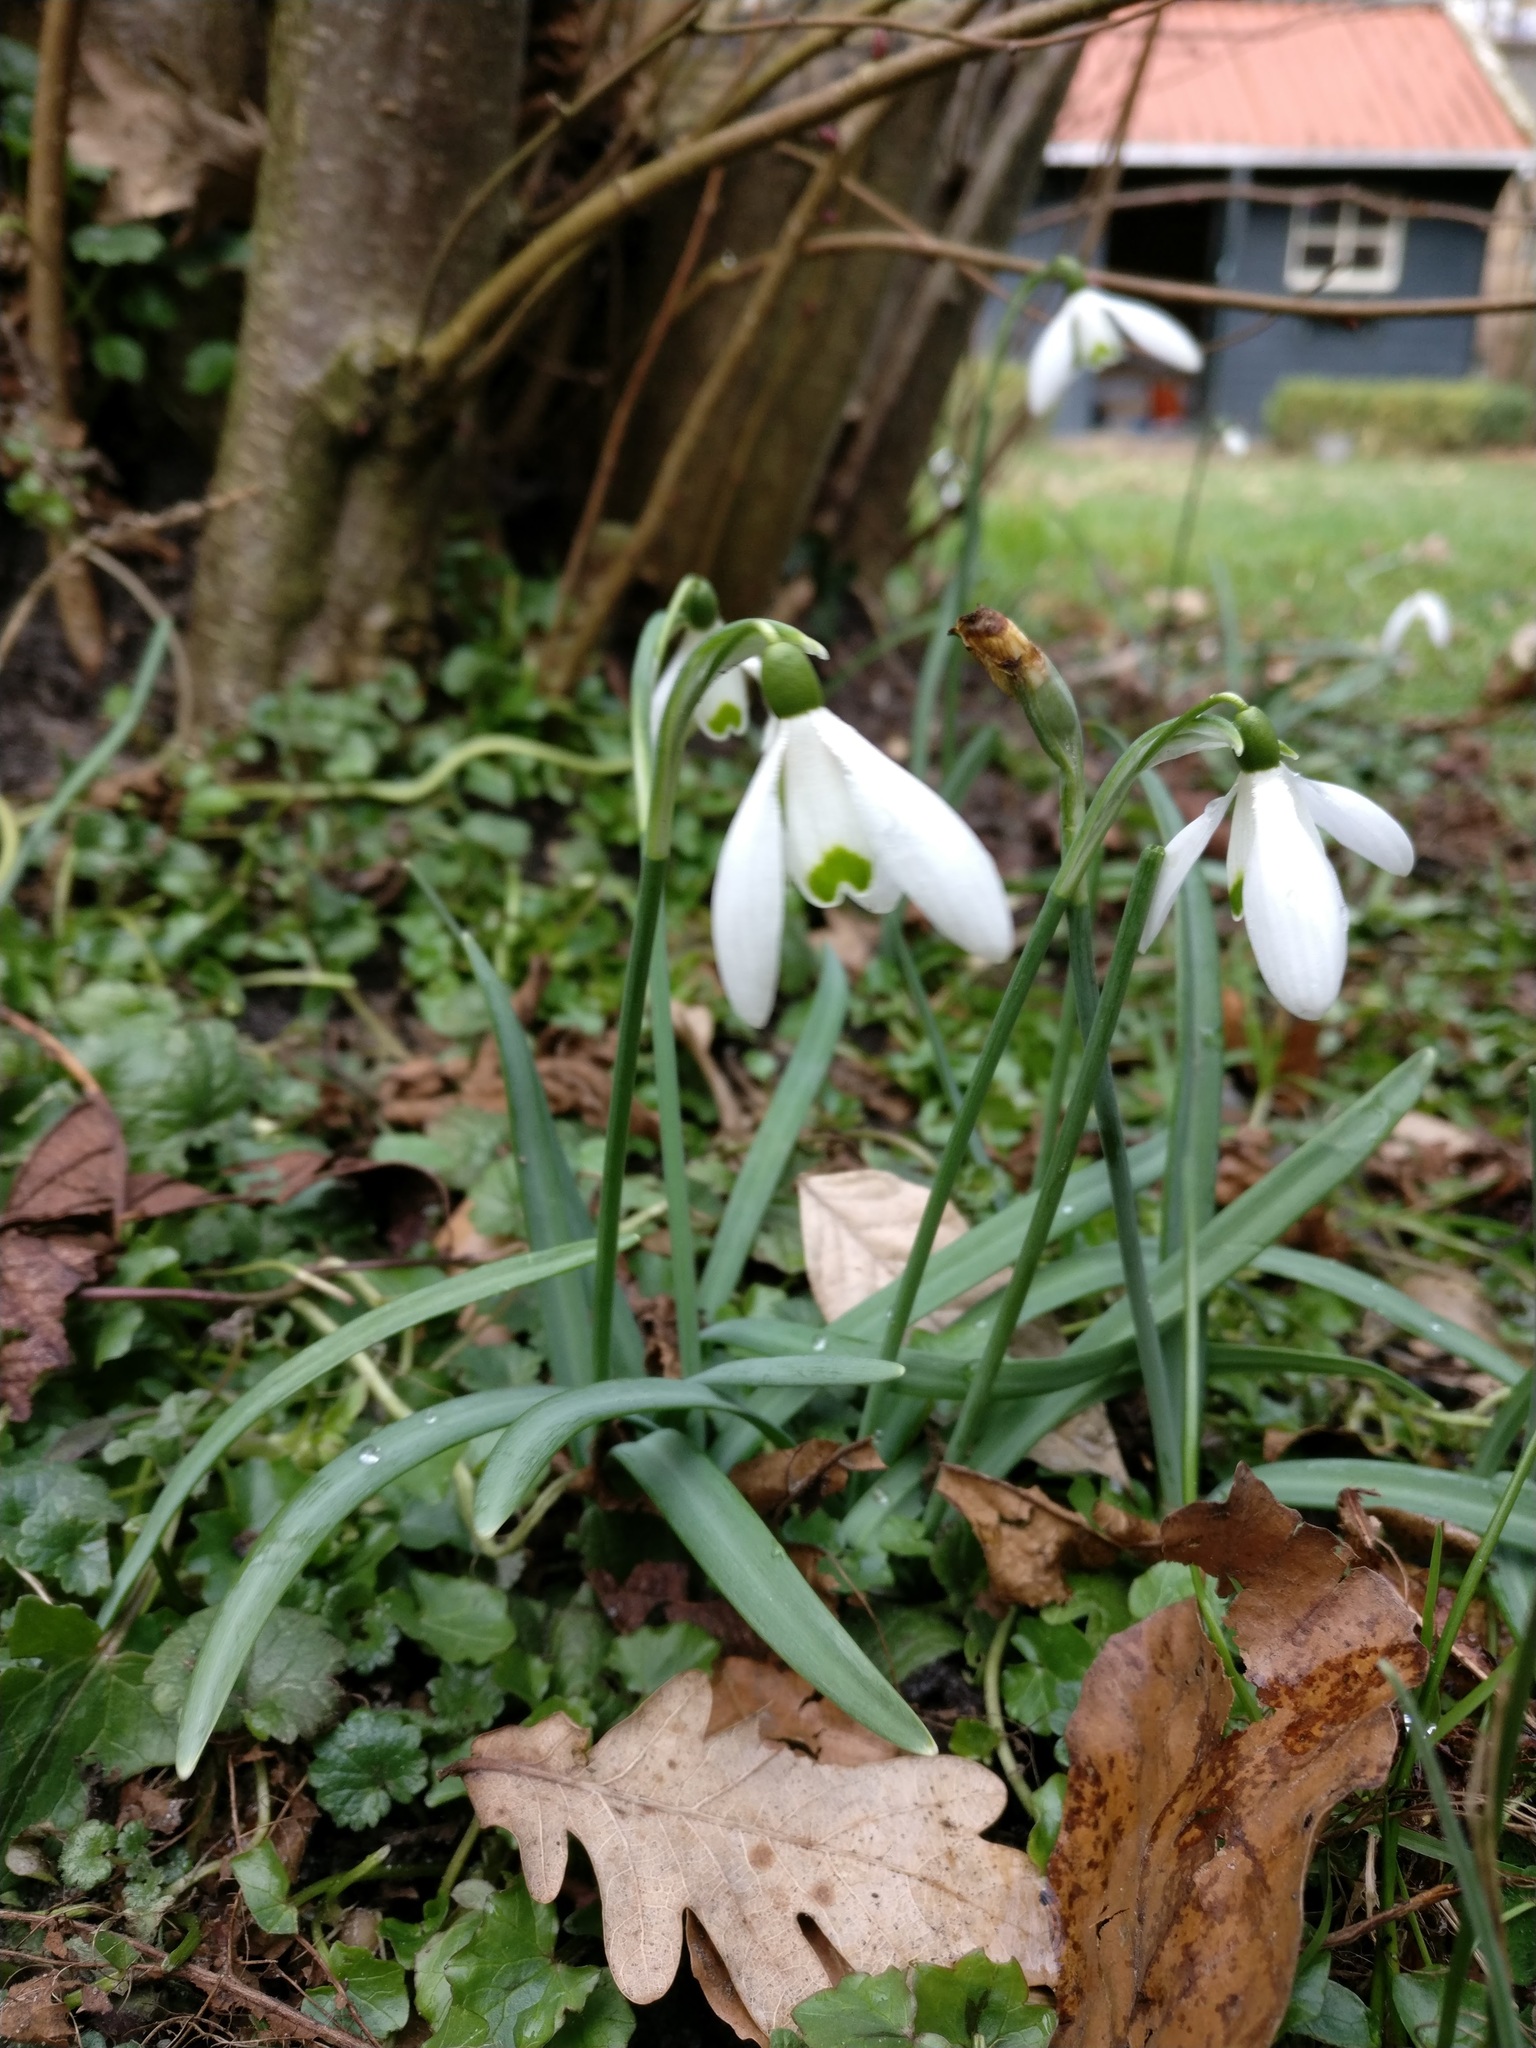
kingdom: Plantae
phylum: Tracheophyta
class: Liliopsida
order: Asparagales
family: Amaryllidaceae
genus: Galanthus
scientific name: Galanthus nivalis
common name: Snowdrop
